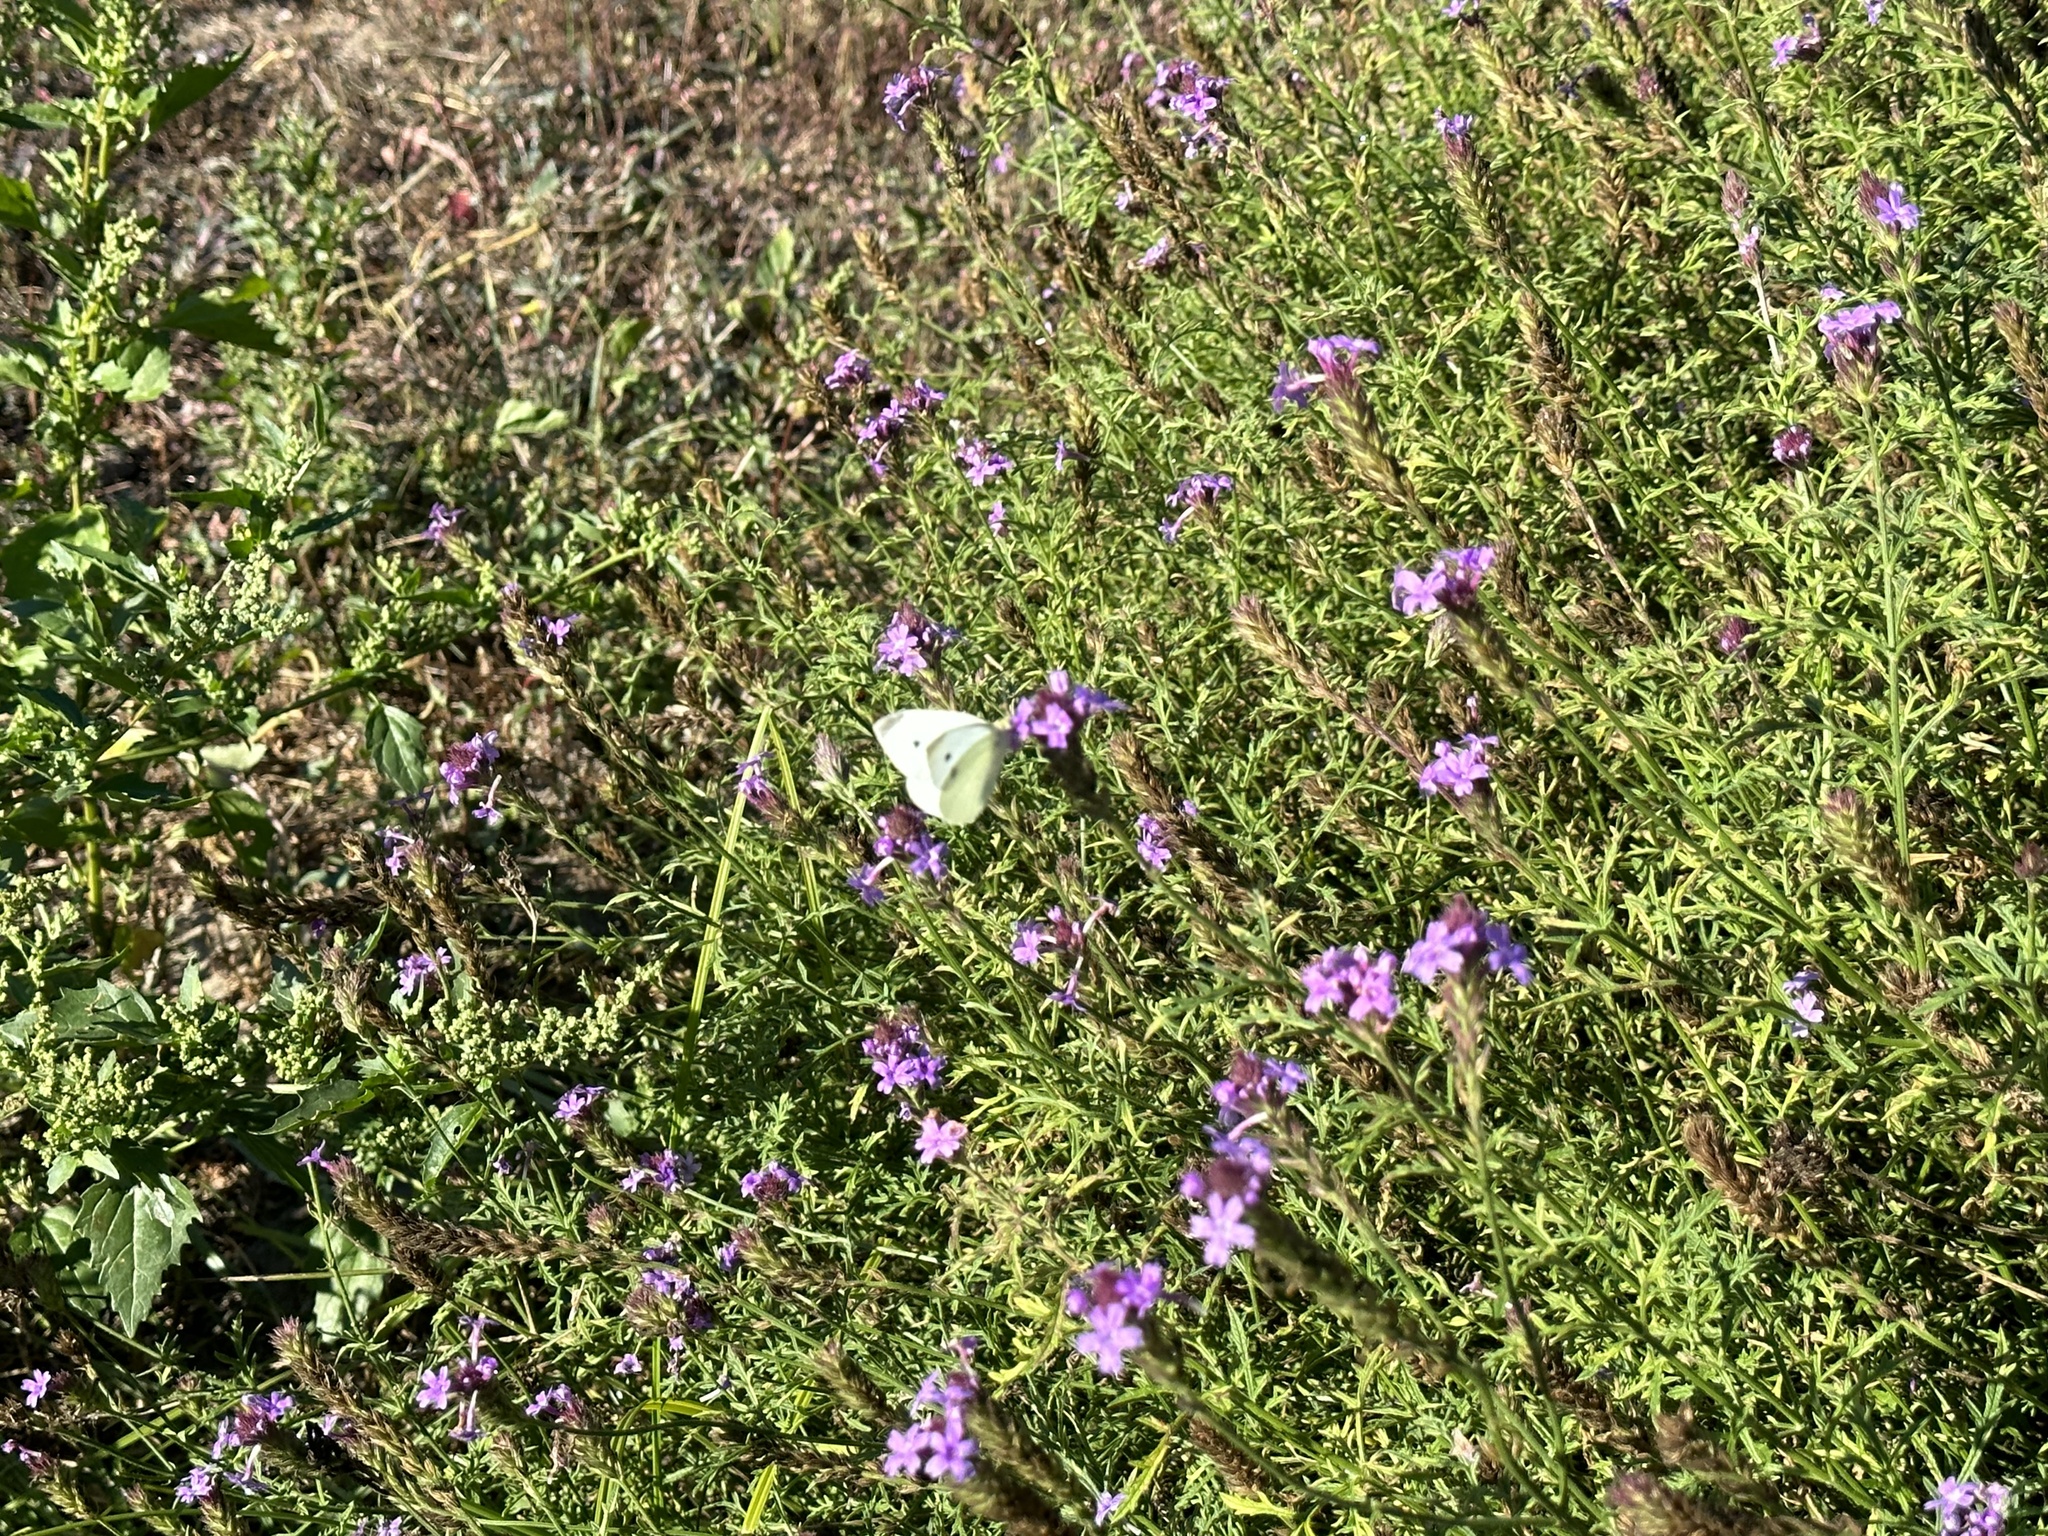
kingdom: Animalia
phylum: Arthropoda
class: Insecta
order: Lepidoptera
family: Pieridae
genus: Pieris
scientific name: Pieris rapae
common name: Small white
